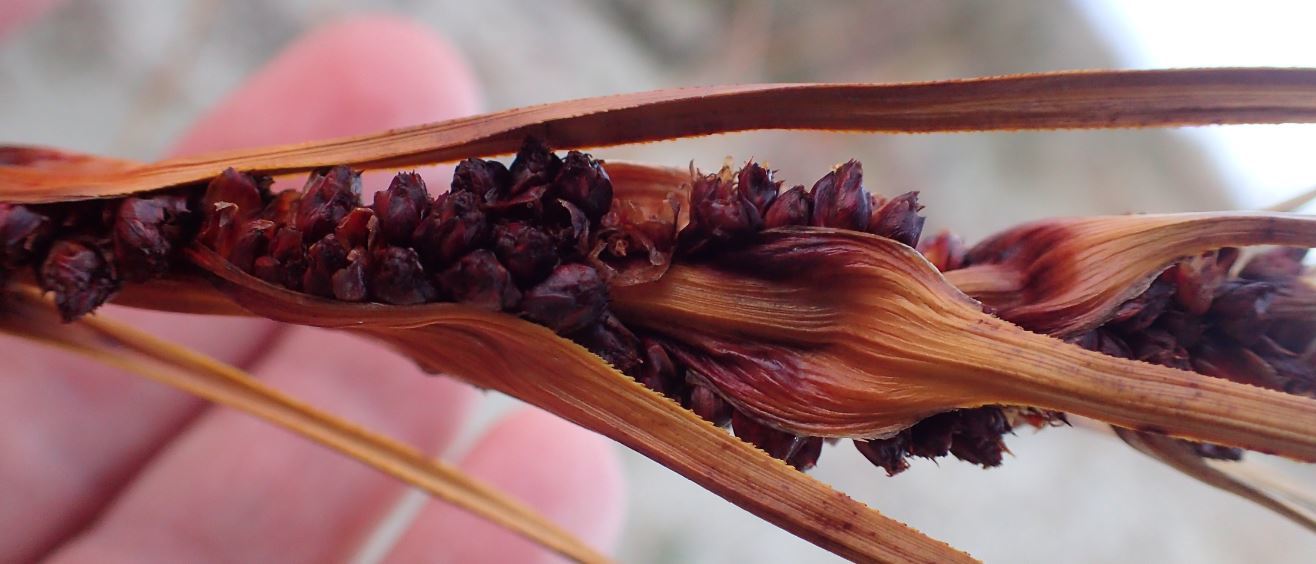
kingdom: Plantae
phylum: Tracheophyta
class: Liliopsida
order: Poales
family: Cyperaceae
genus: Ficinia
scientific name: Ficinia spiralis
